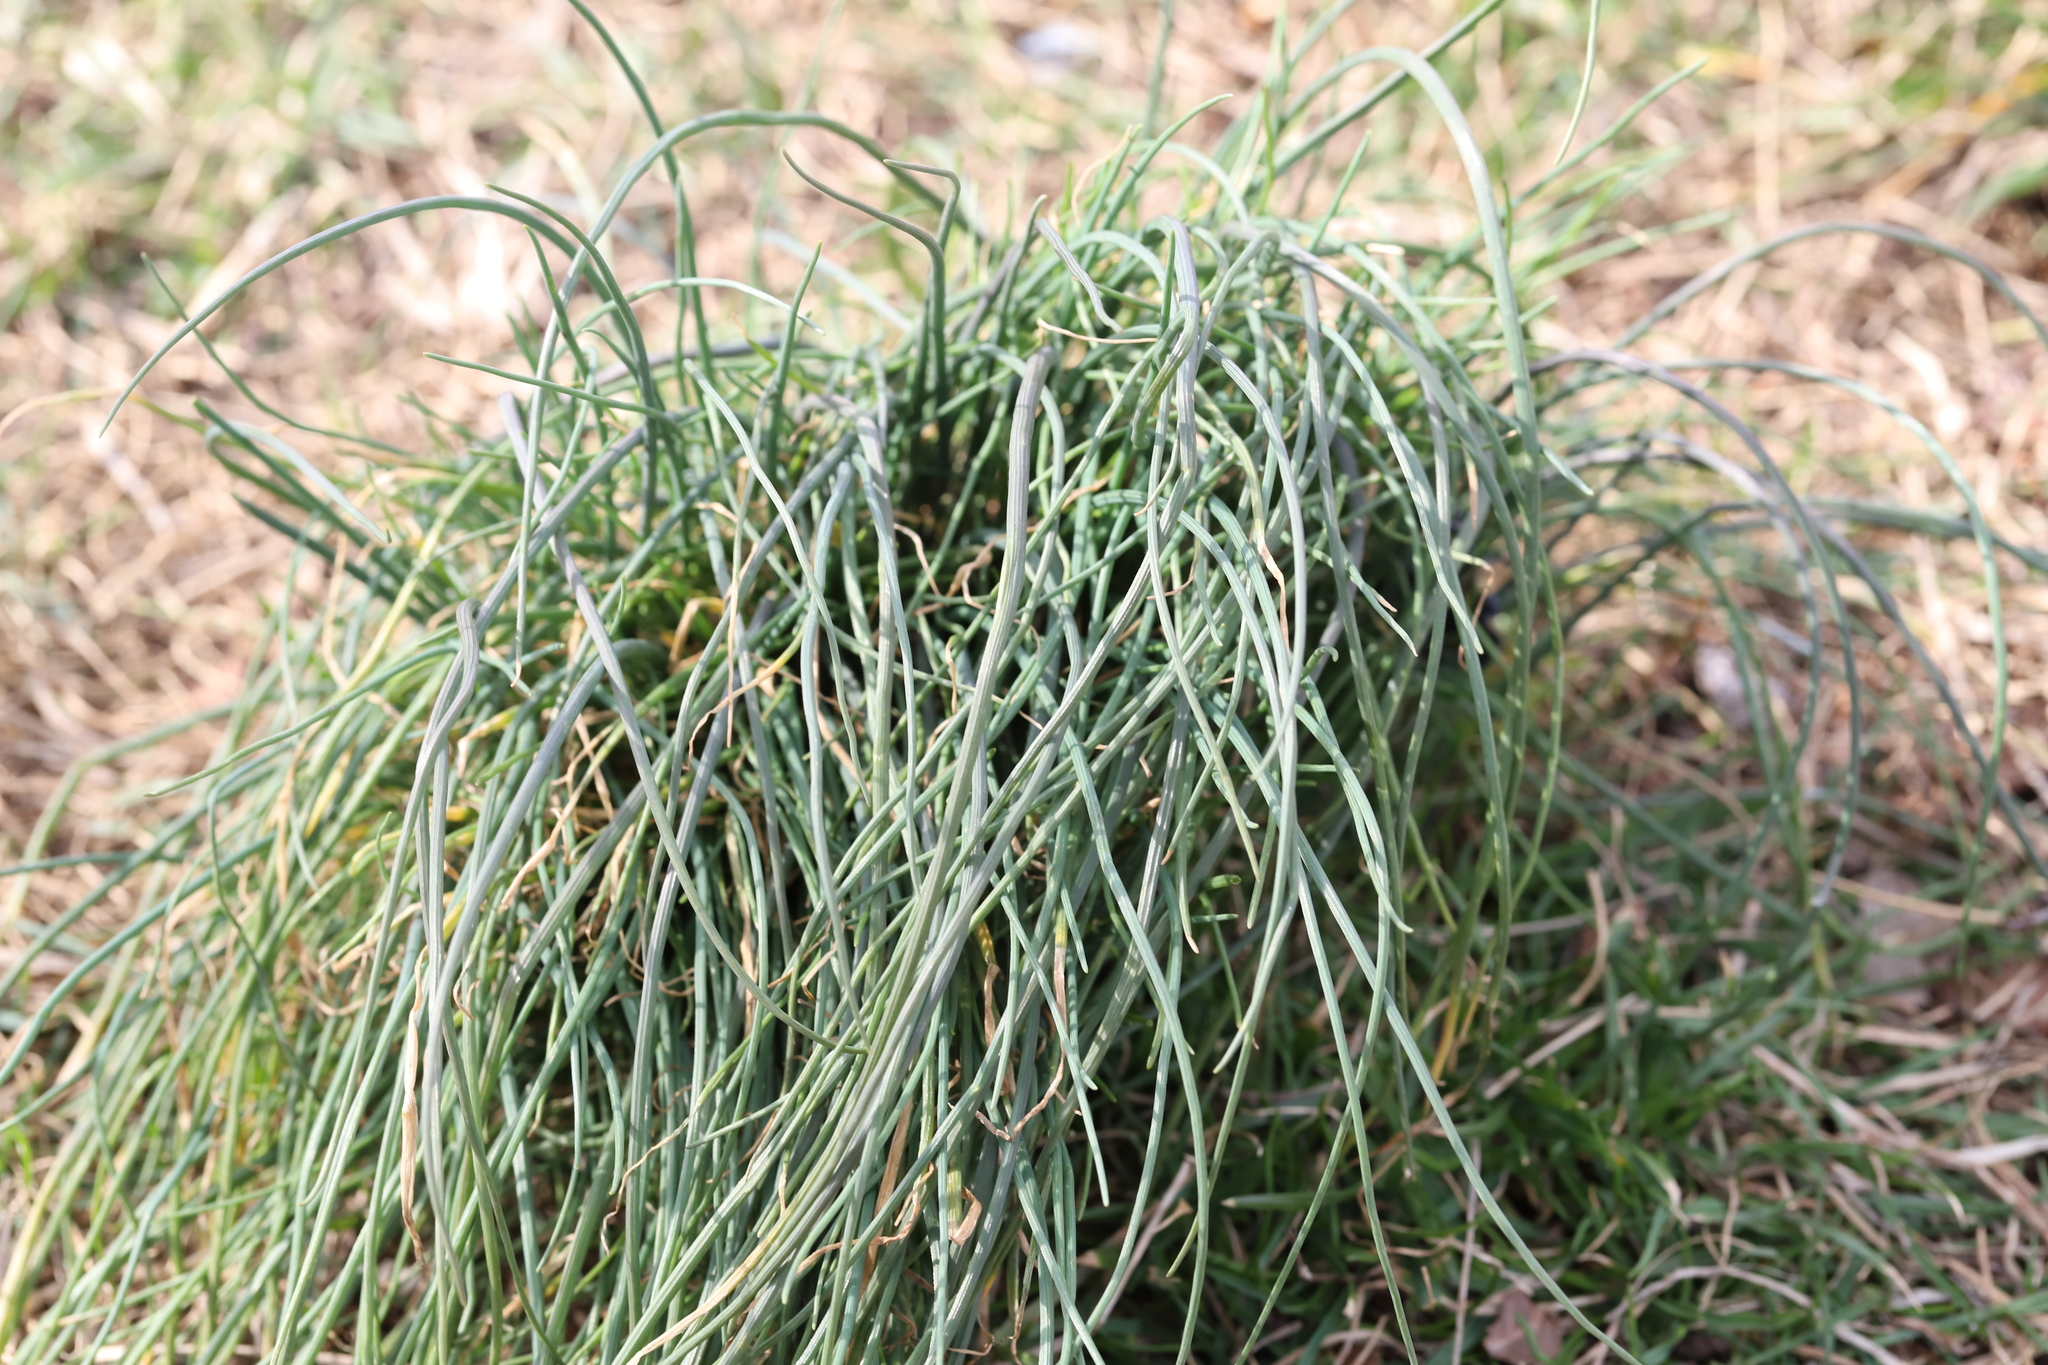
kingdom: Plantae
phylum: Tracheophyta
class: Liliopsida
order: Asparagales
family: Amaryllidaceae
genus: Allium
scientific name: Allium vineale
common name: Crow garlic
